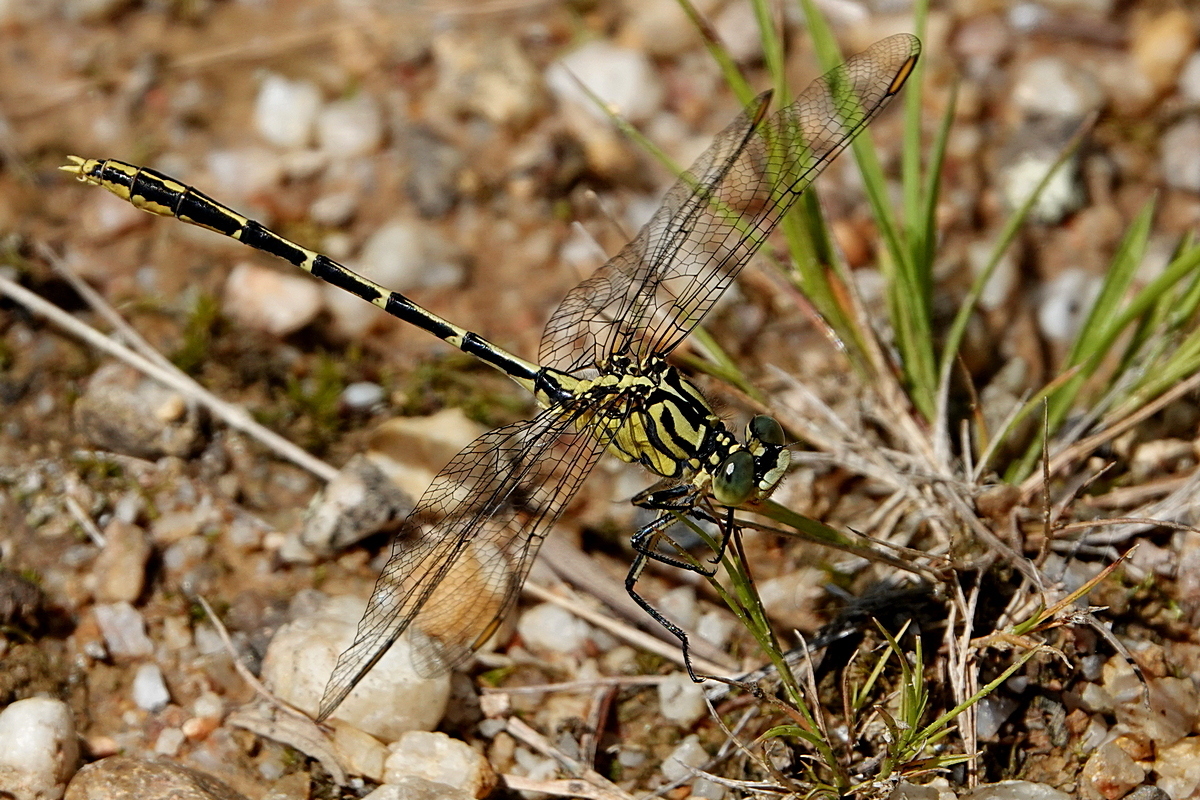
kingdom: Animalia
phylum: Arthropoda
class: Insecta
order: Odonata
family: Gomphidae
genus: Austrogomphus
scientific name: Austrogomphus guerini
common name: Yellow-striped hunter
